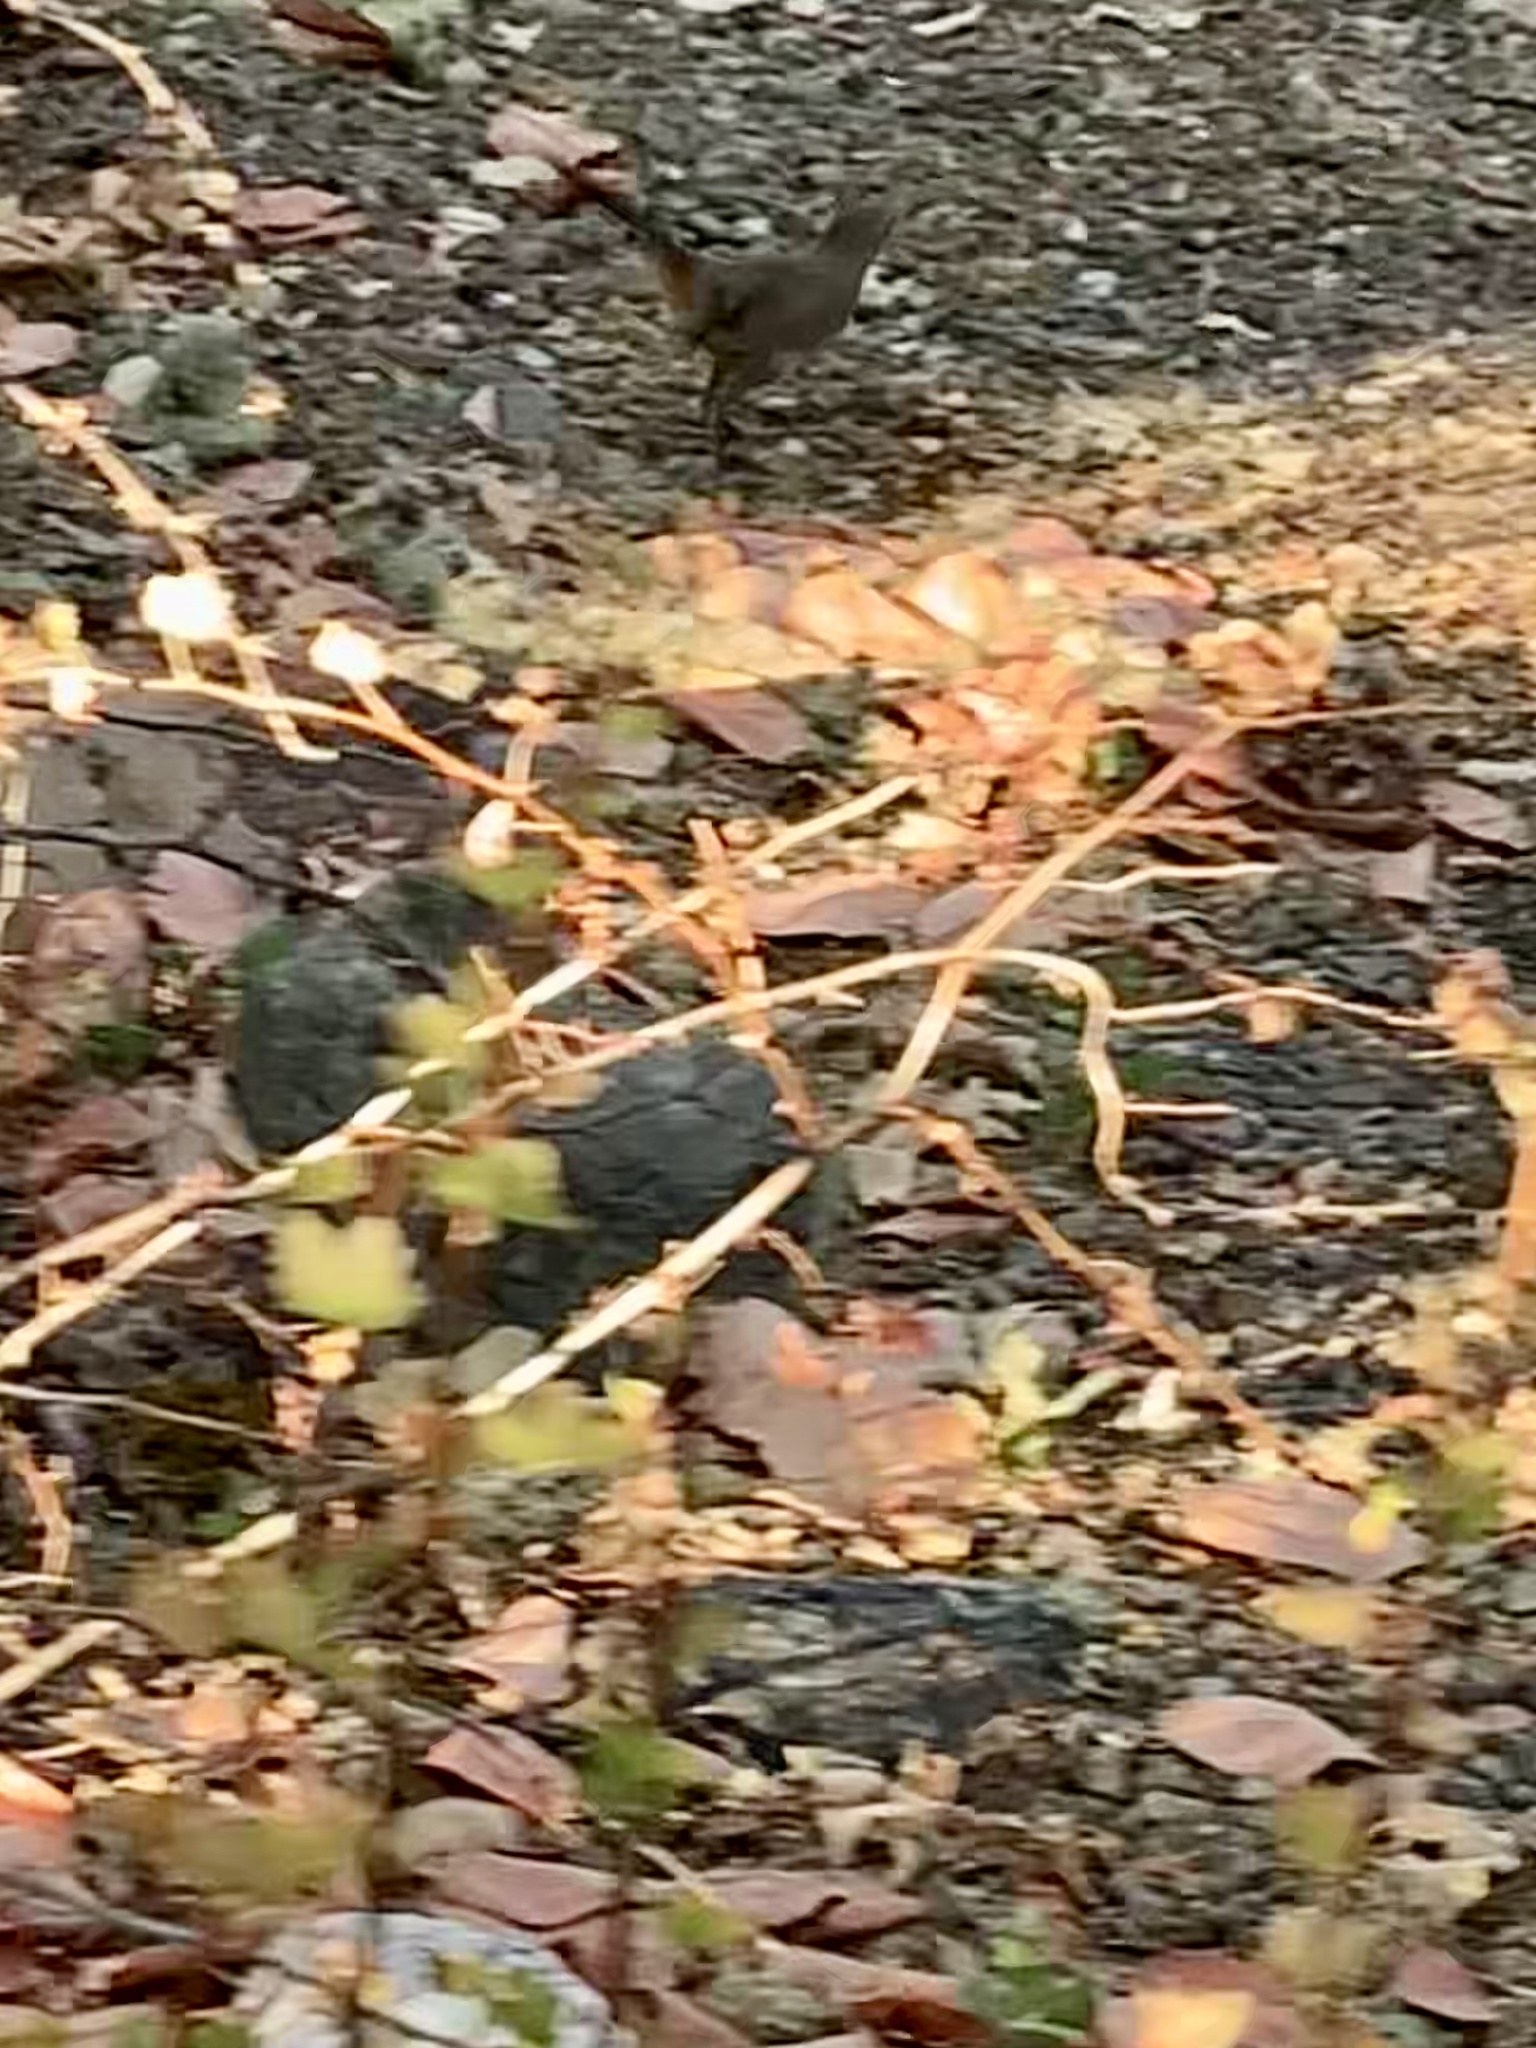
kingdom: Animalia
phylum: Chordata
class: Aves
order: Passeriformes
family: Mimidae
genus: Toxostoma
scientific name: Toxostoma redivivum
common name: California thrasher
